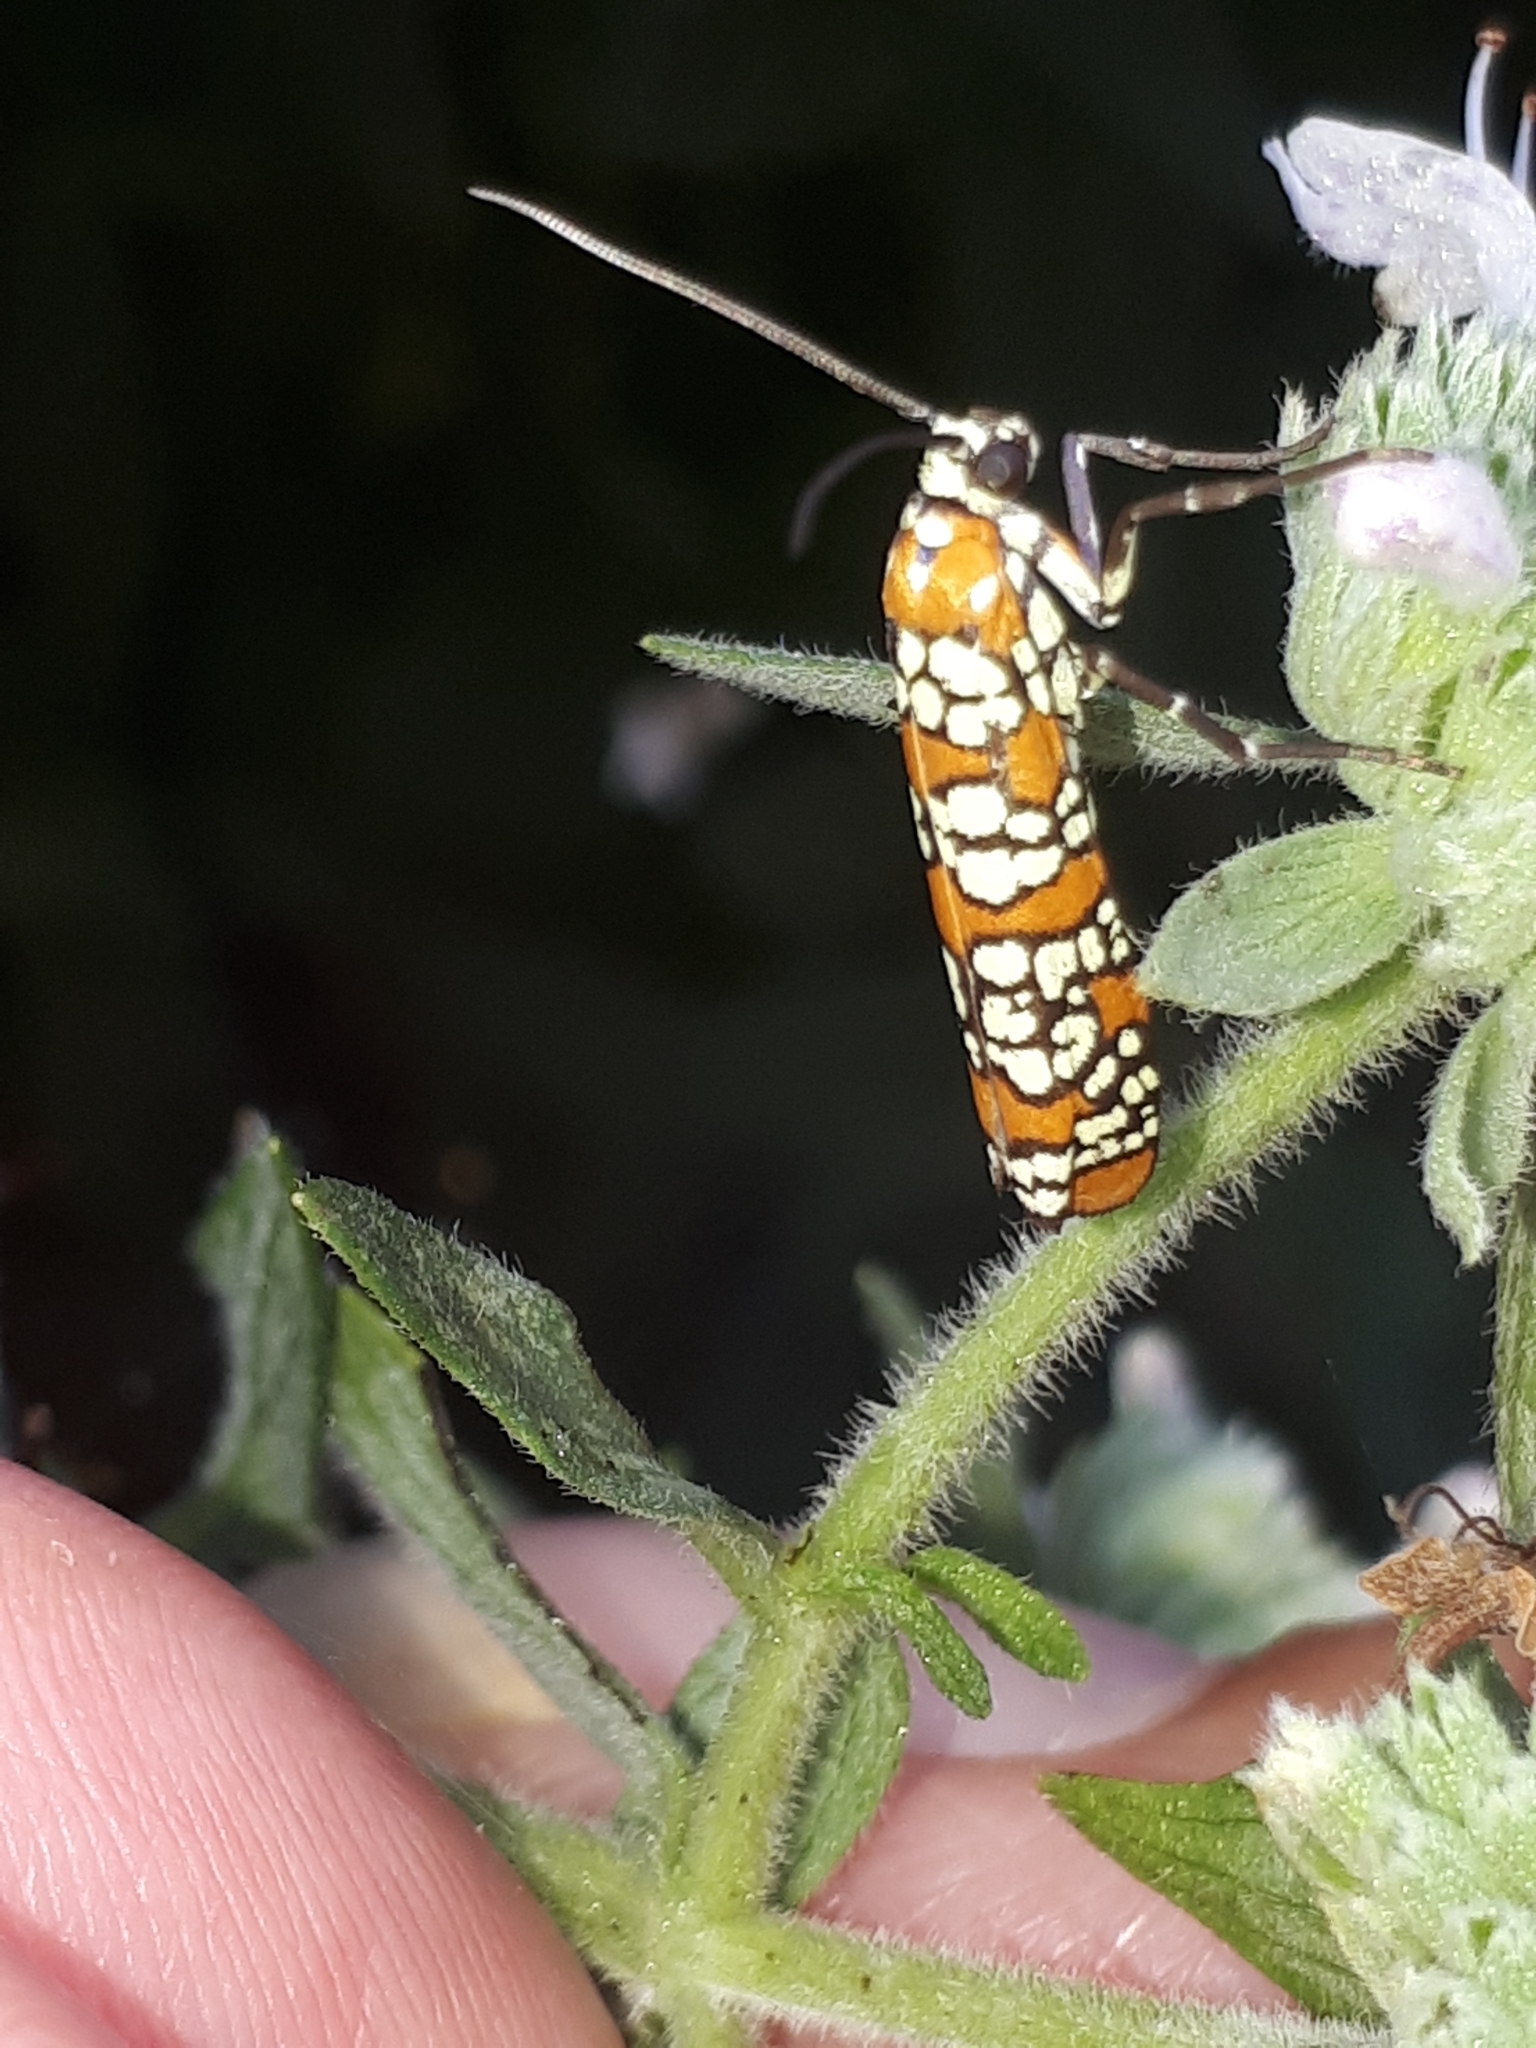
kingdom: Animalia
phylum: Arthropoda
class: Insecta
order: Lepidoptera
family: Attevidae
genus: Atteva
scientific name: Atteva punctella
